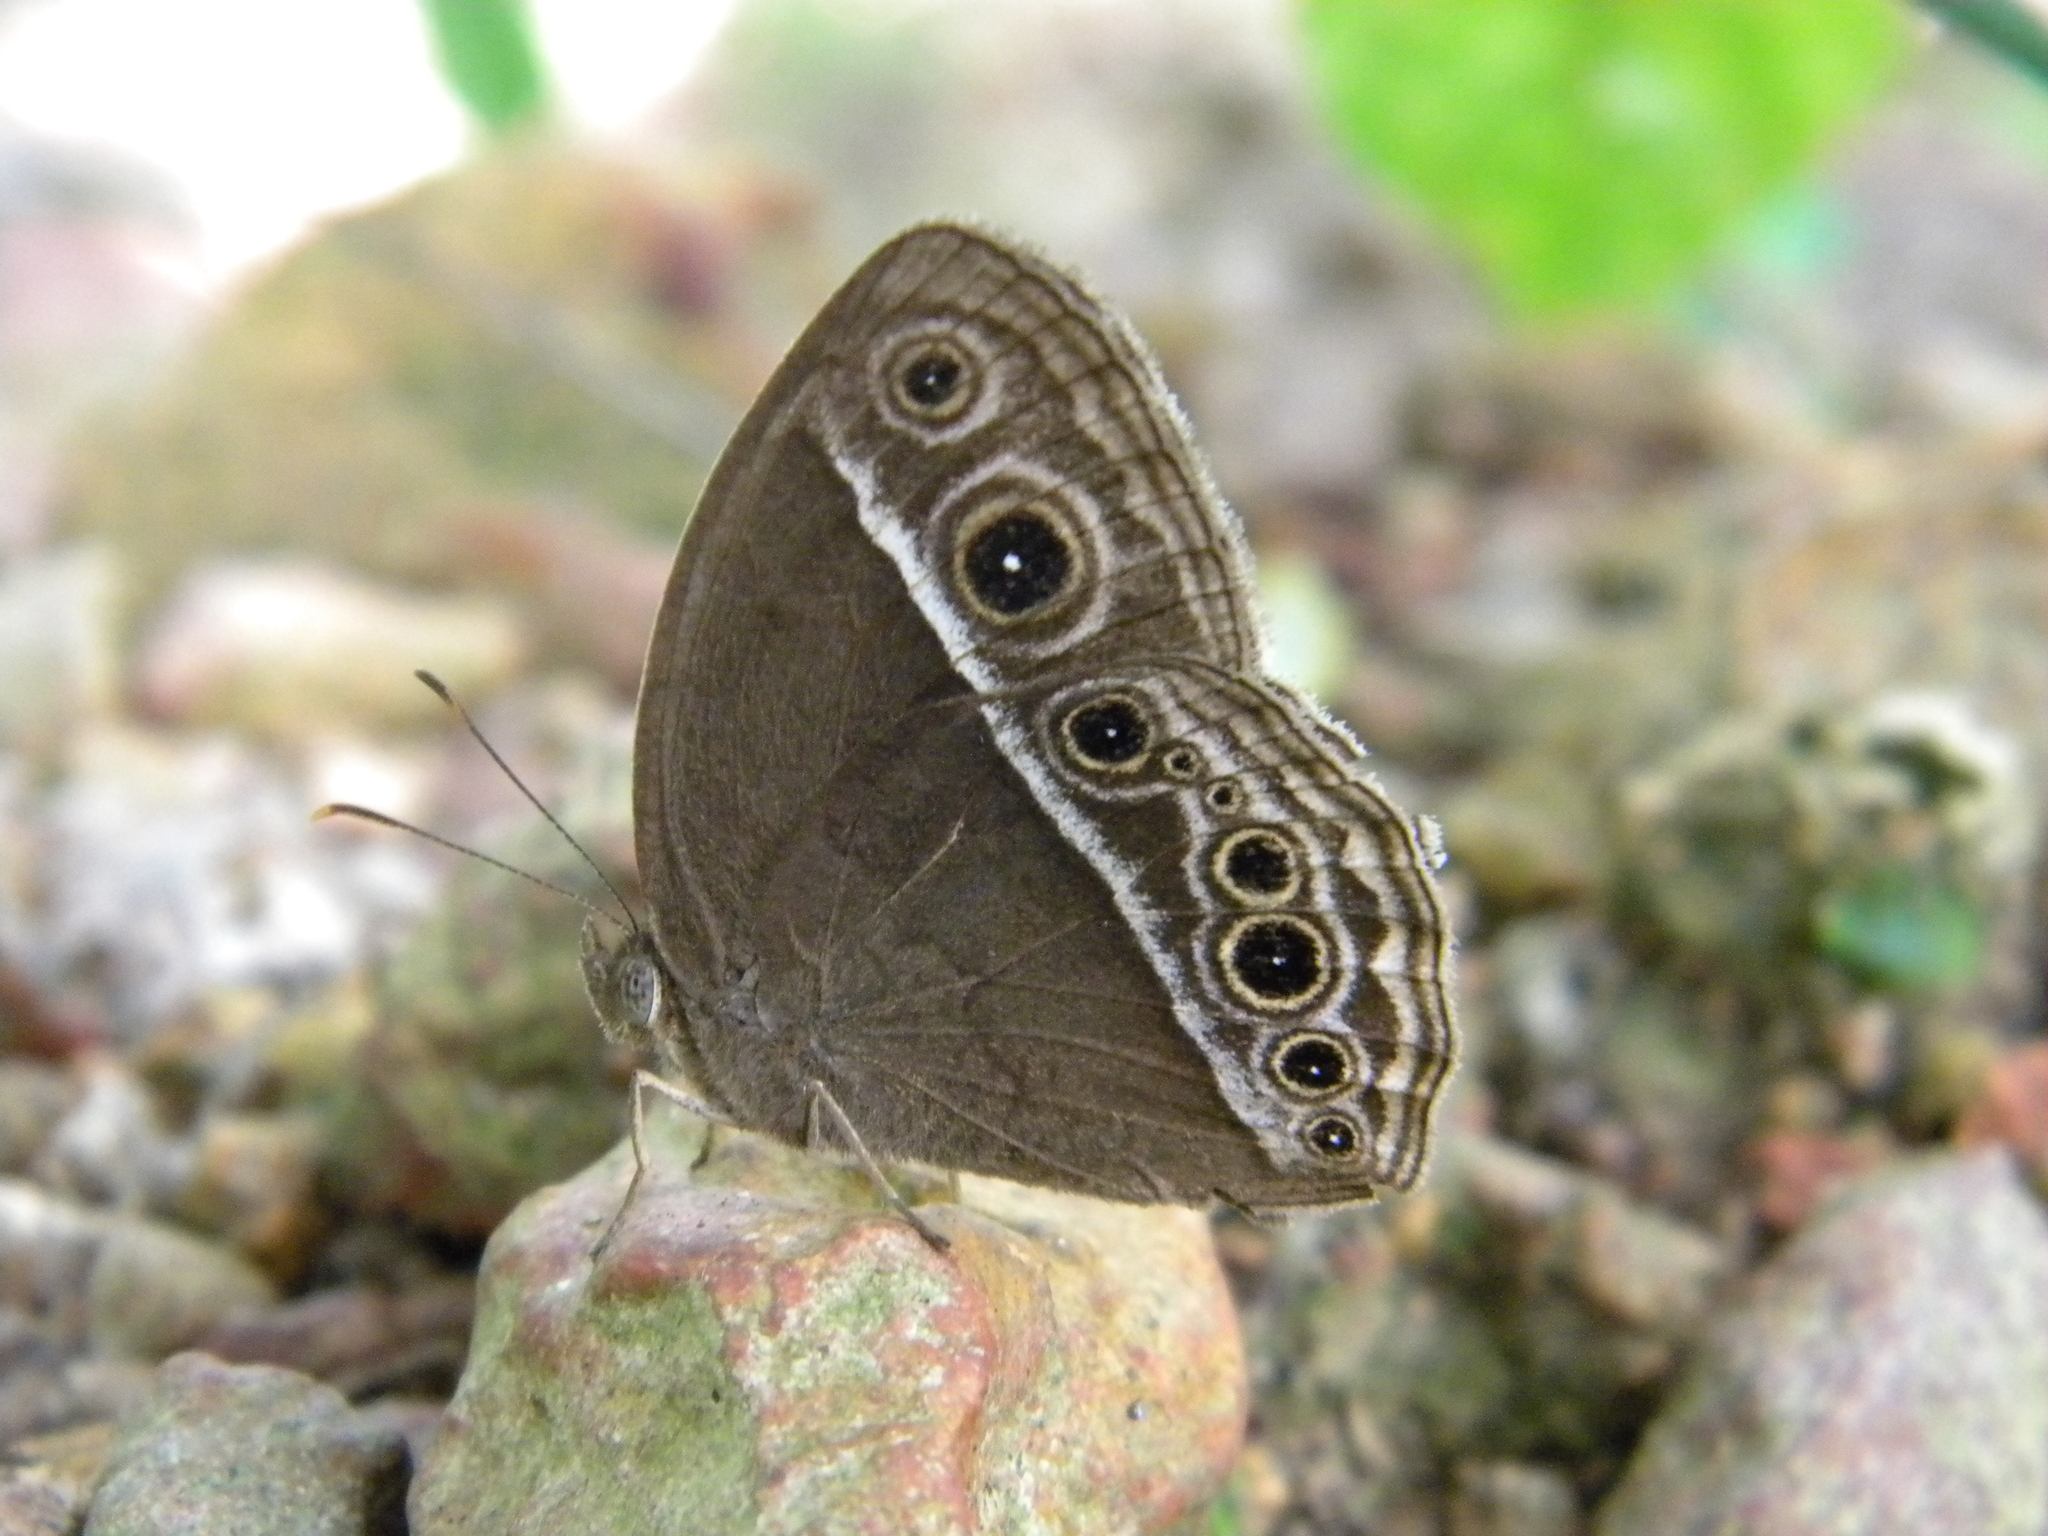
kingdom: Animalia
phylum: Arthropoda
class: Insecta
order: Lepidoptera
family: Nymphalidae
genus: Mycalesis
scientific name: Mycalesis mineus
